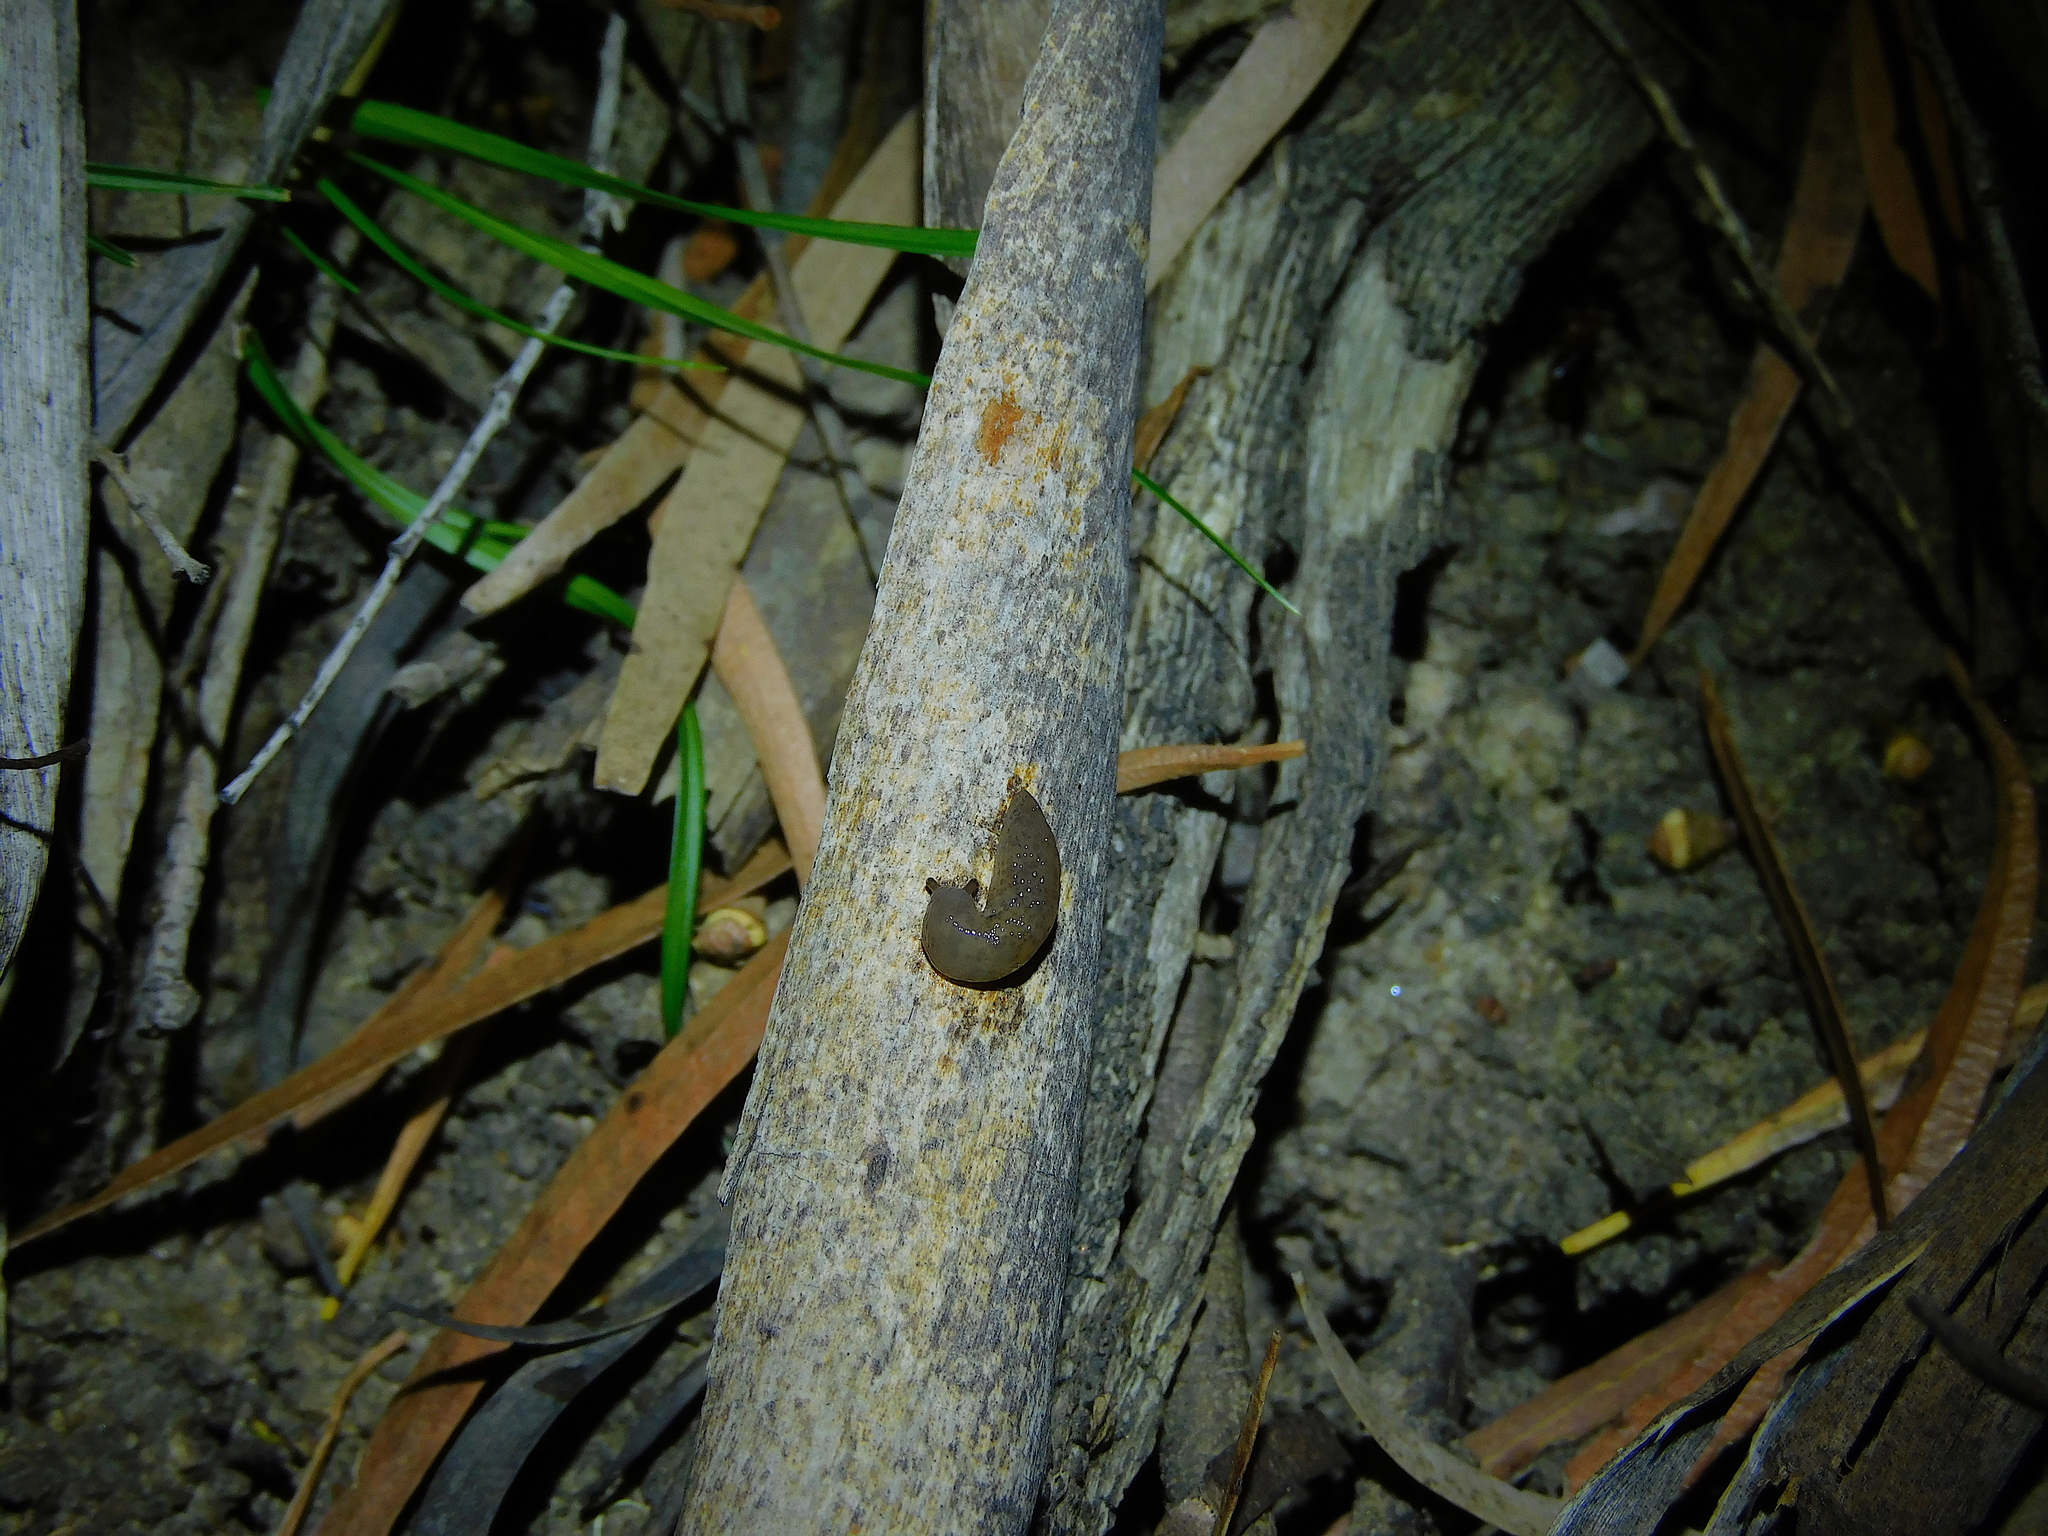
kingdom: Animalia
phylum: Mollusca
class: Gastropoda
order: Stylommatophora
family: Agriolimacidae
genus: Deroceras
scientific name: Deroceras invadens
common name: Caruana's slug
